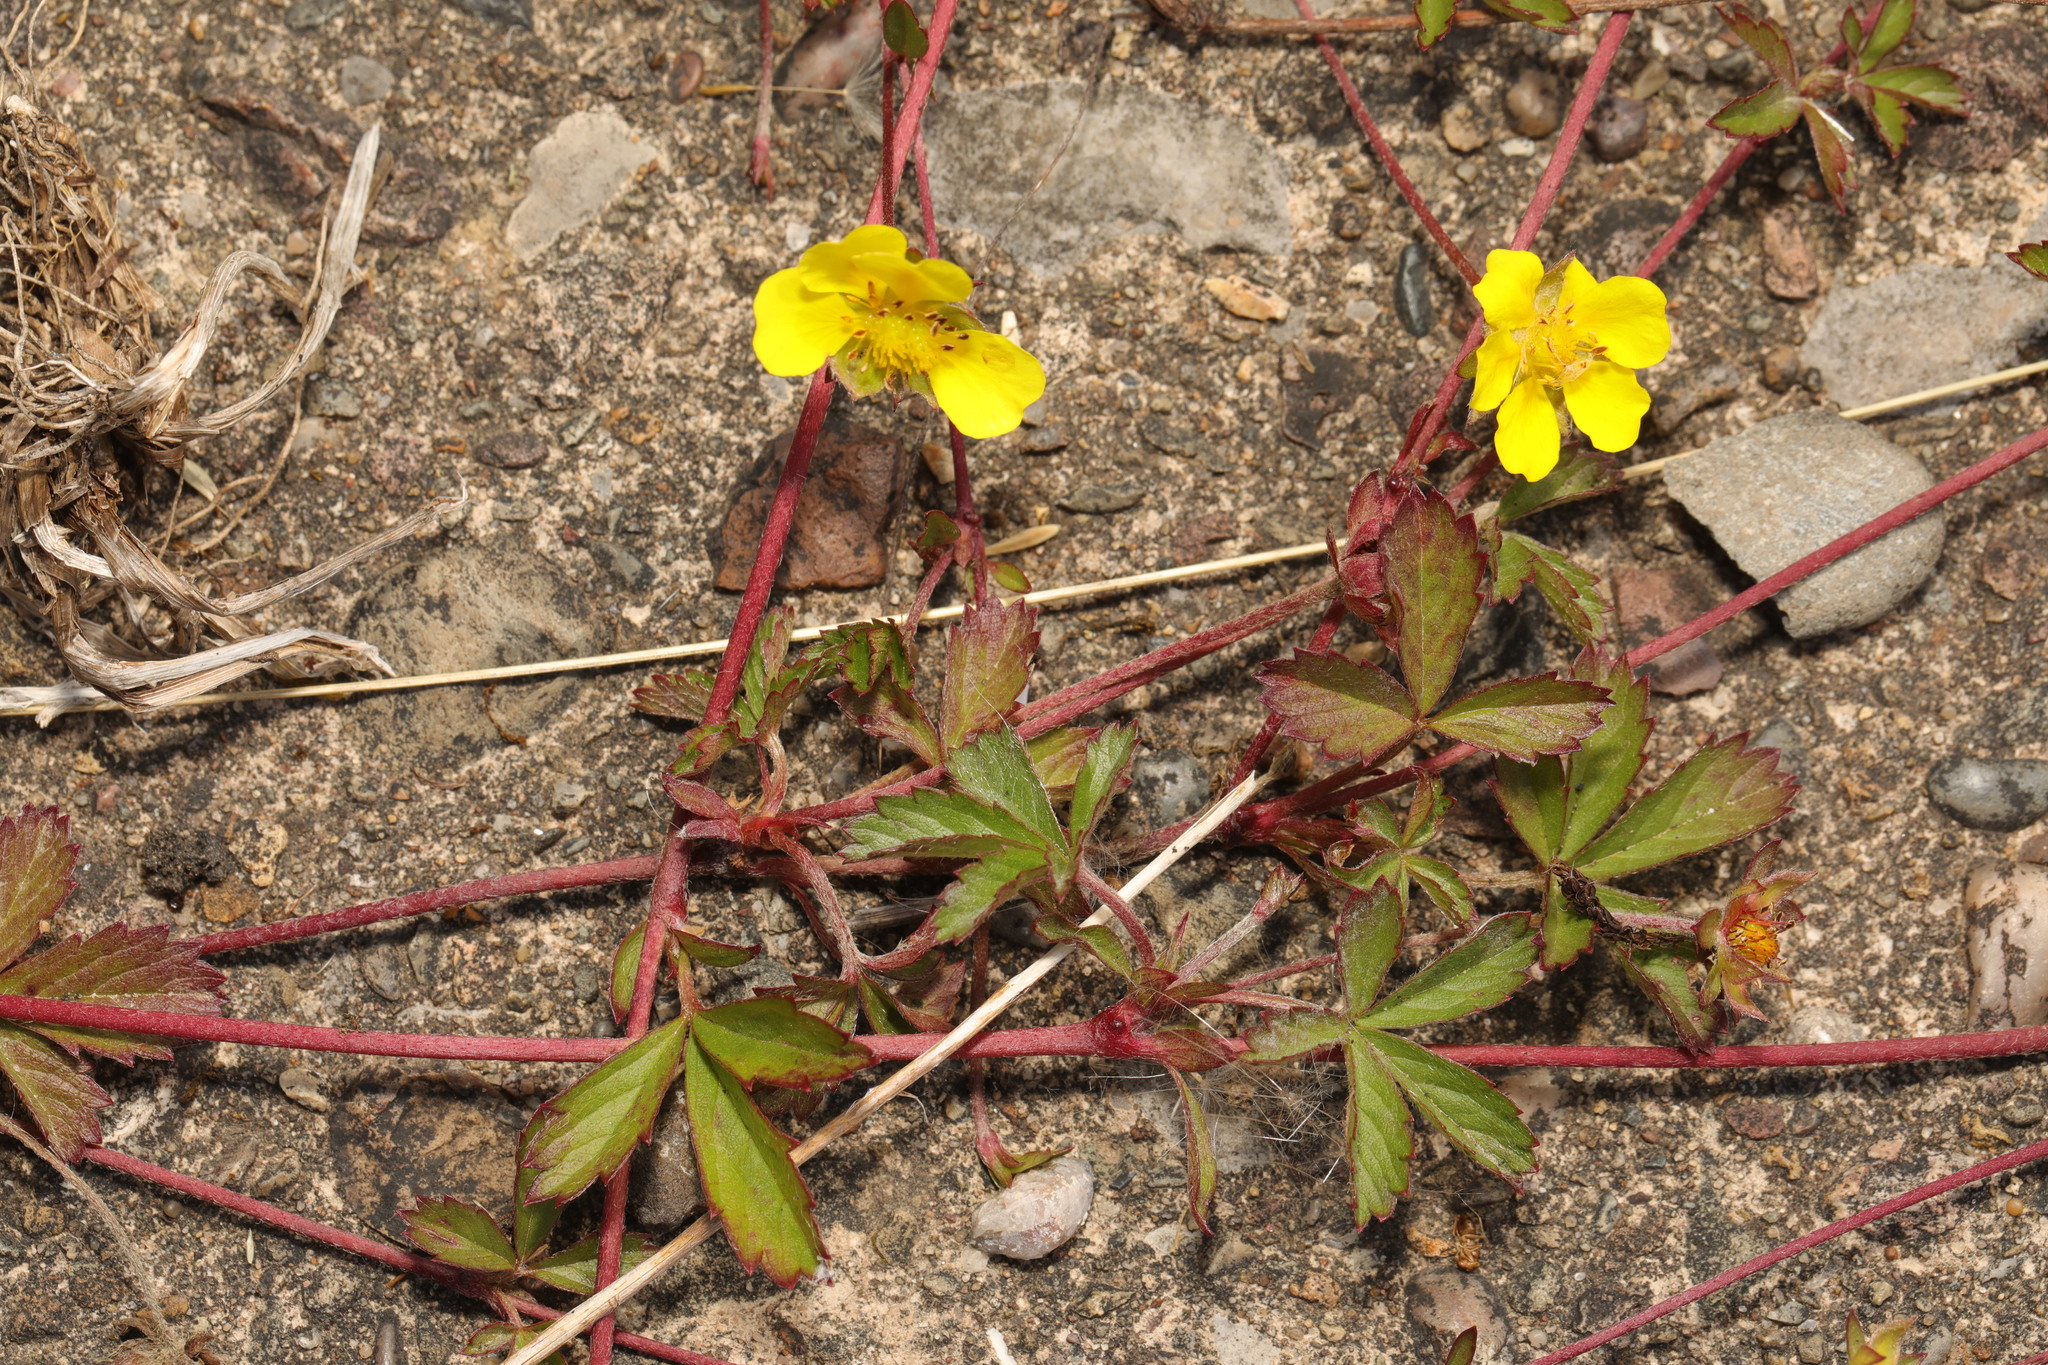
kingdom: Plantae
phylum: Tracheophyta
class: Magnoliopsida
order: Rosales
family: Rosaceae
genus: Potentilla
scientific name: Potentilla reptans
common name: Creeping cinquefoil
